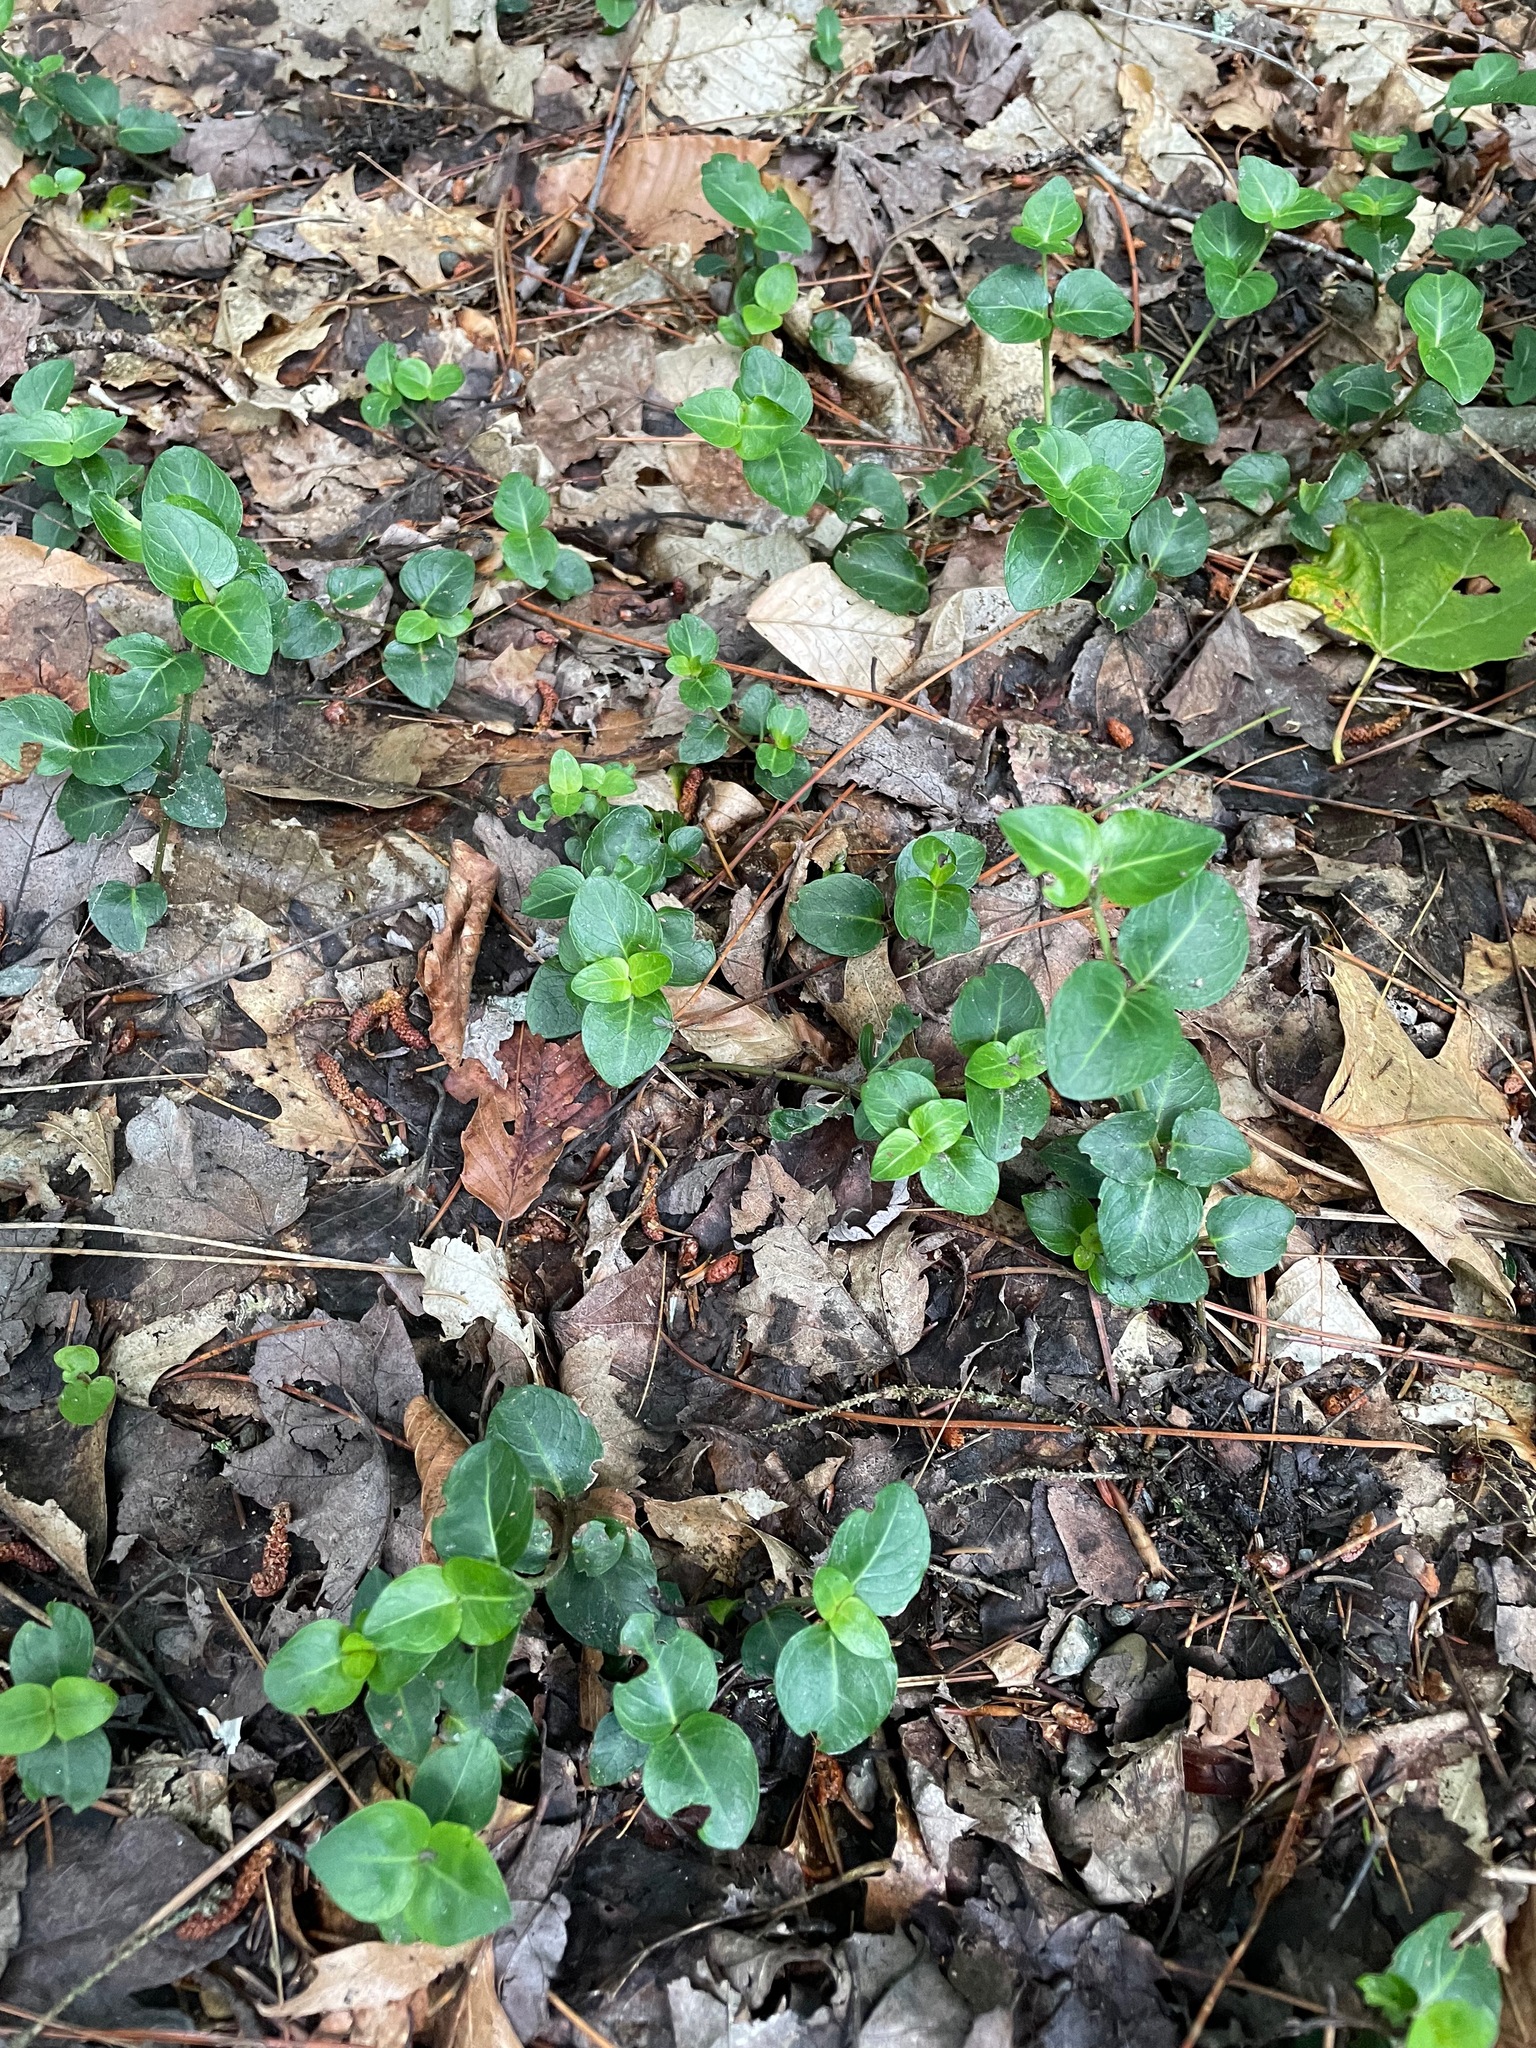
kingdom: Plantae
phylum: Tracheophyta
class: Magnoliopsida
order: Gentianales
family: Rubiaceae
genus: Mitchella
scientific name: Mitchella repens
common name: Partridge-berry
